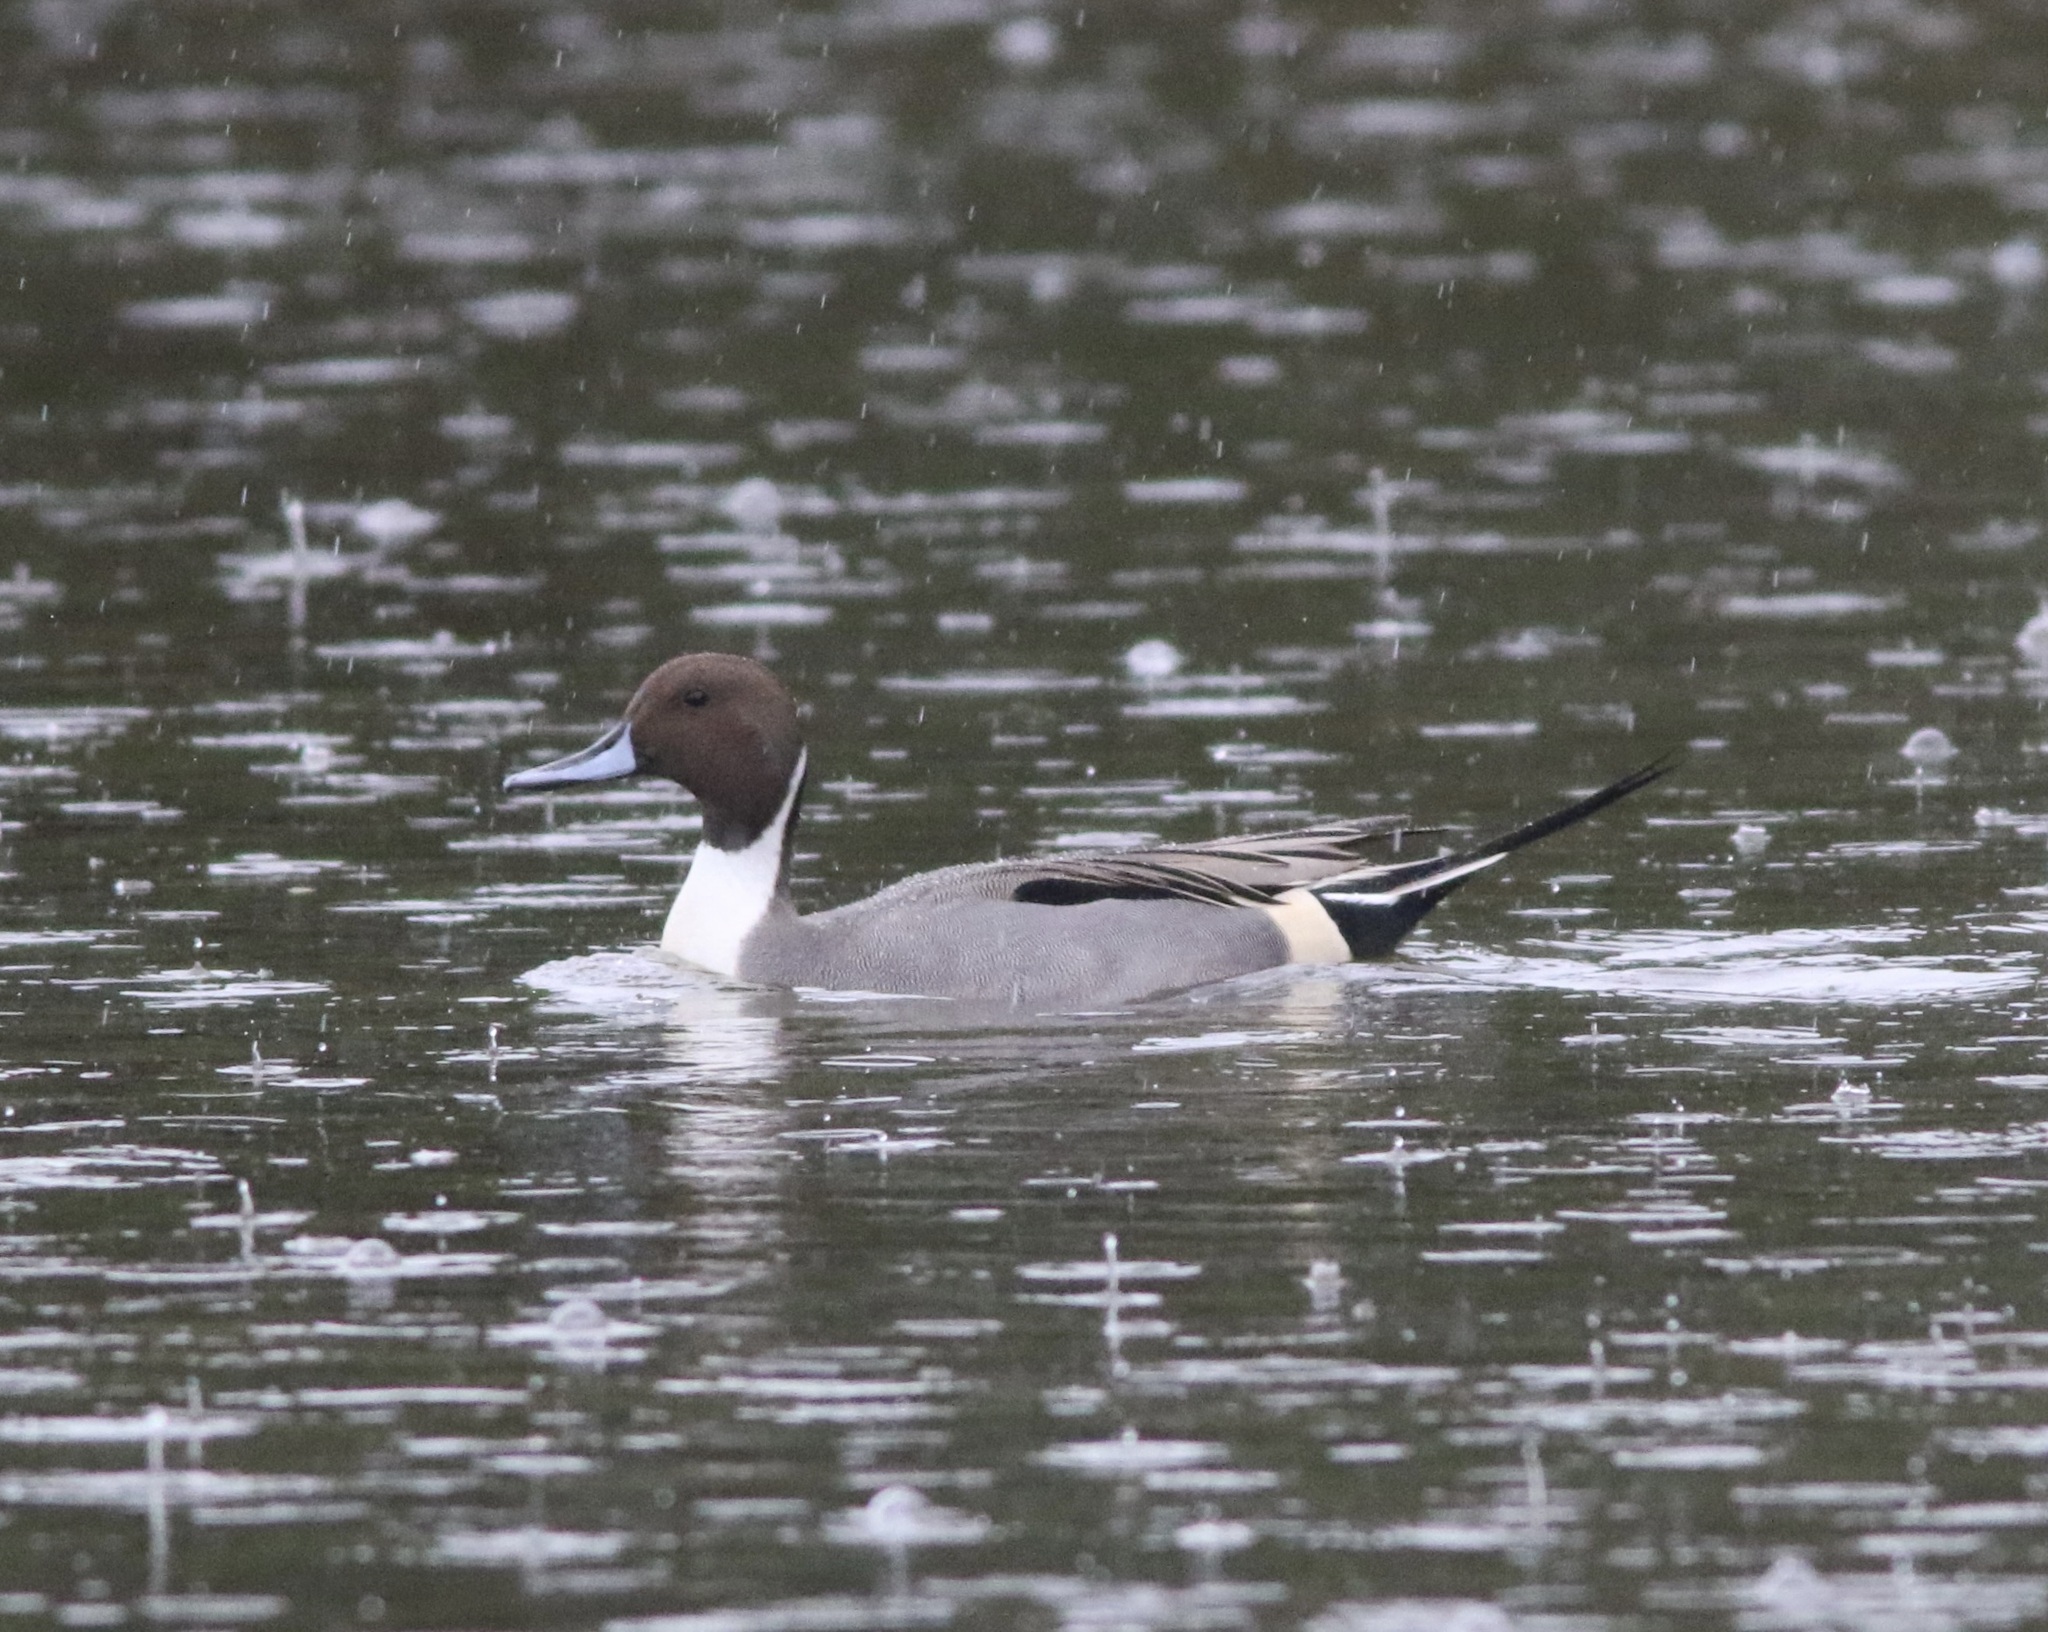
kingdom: Animalia
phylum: Chordata
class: Aves
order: Anseriformes
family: Anatidae
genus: Anas
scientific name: Anas acuta
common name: Northern pintail
